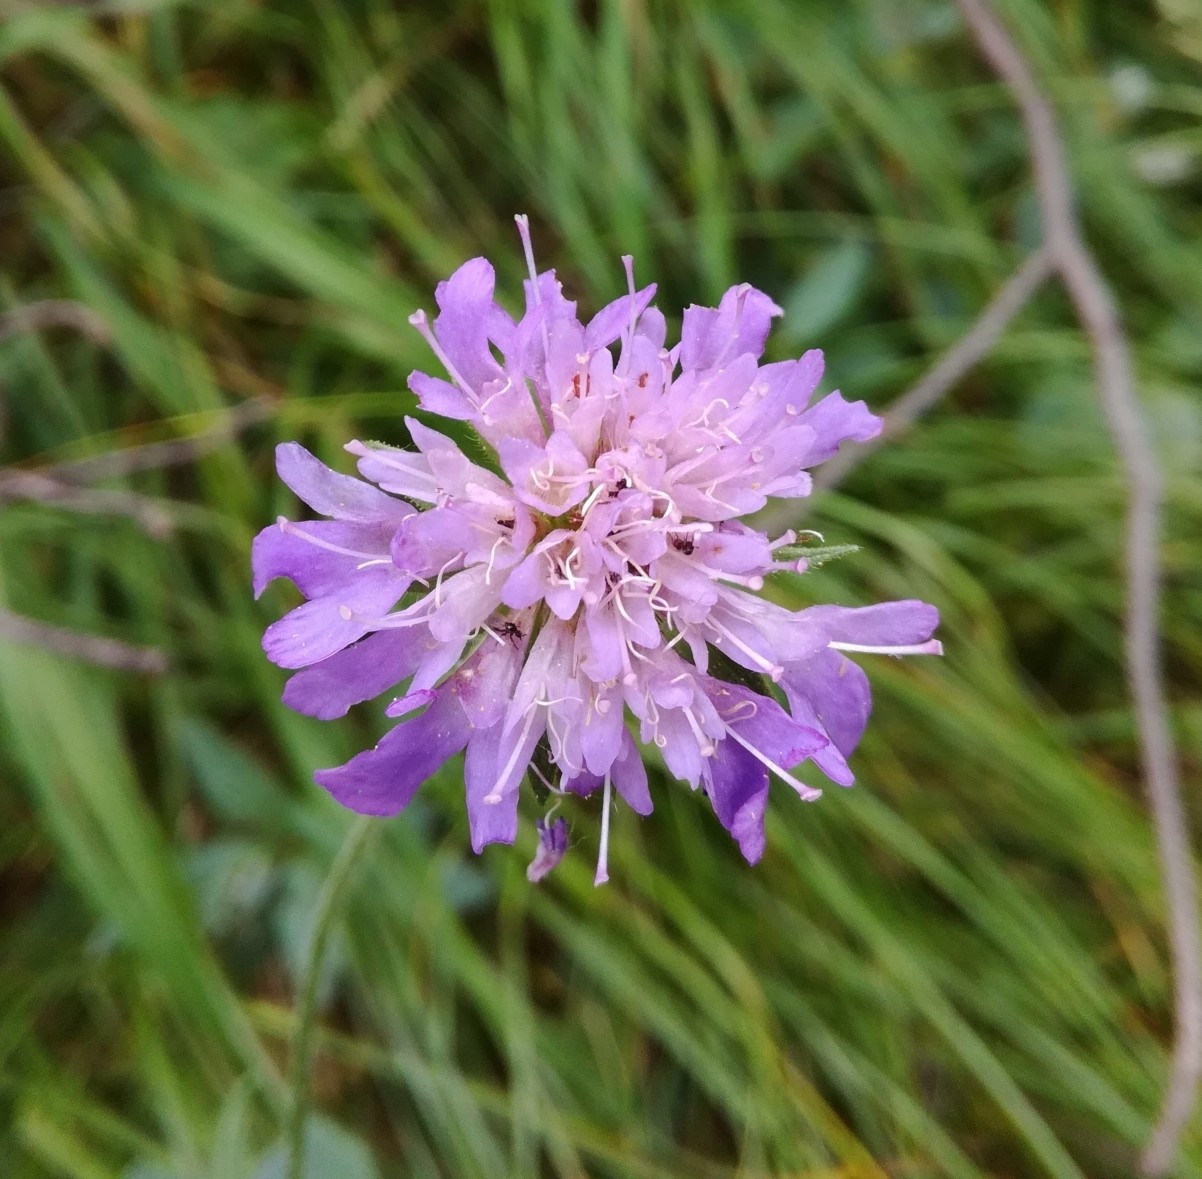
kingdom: Plantae
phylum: Tracheophyta
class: Magnoliopsida
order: Dipsacales
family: Caprifoliaceae
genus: Knautia
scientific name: Knautia dipsacifolia
